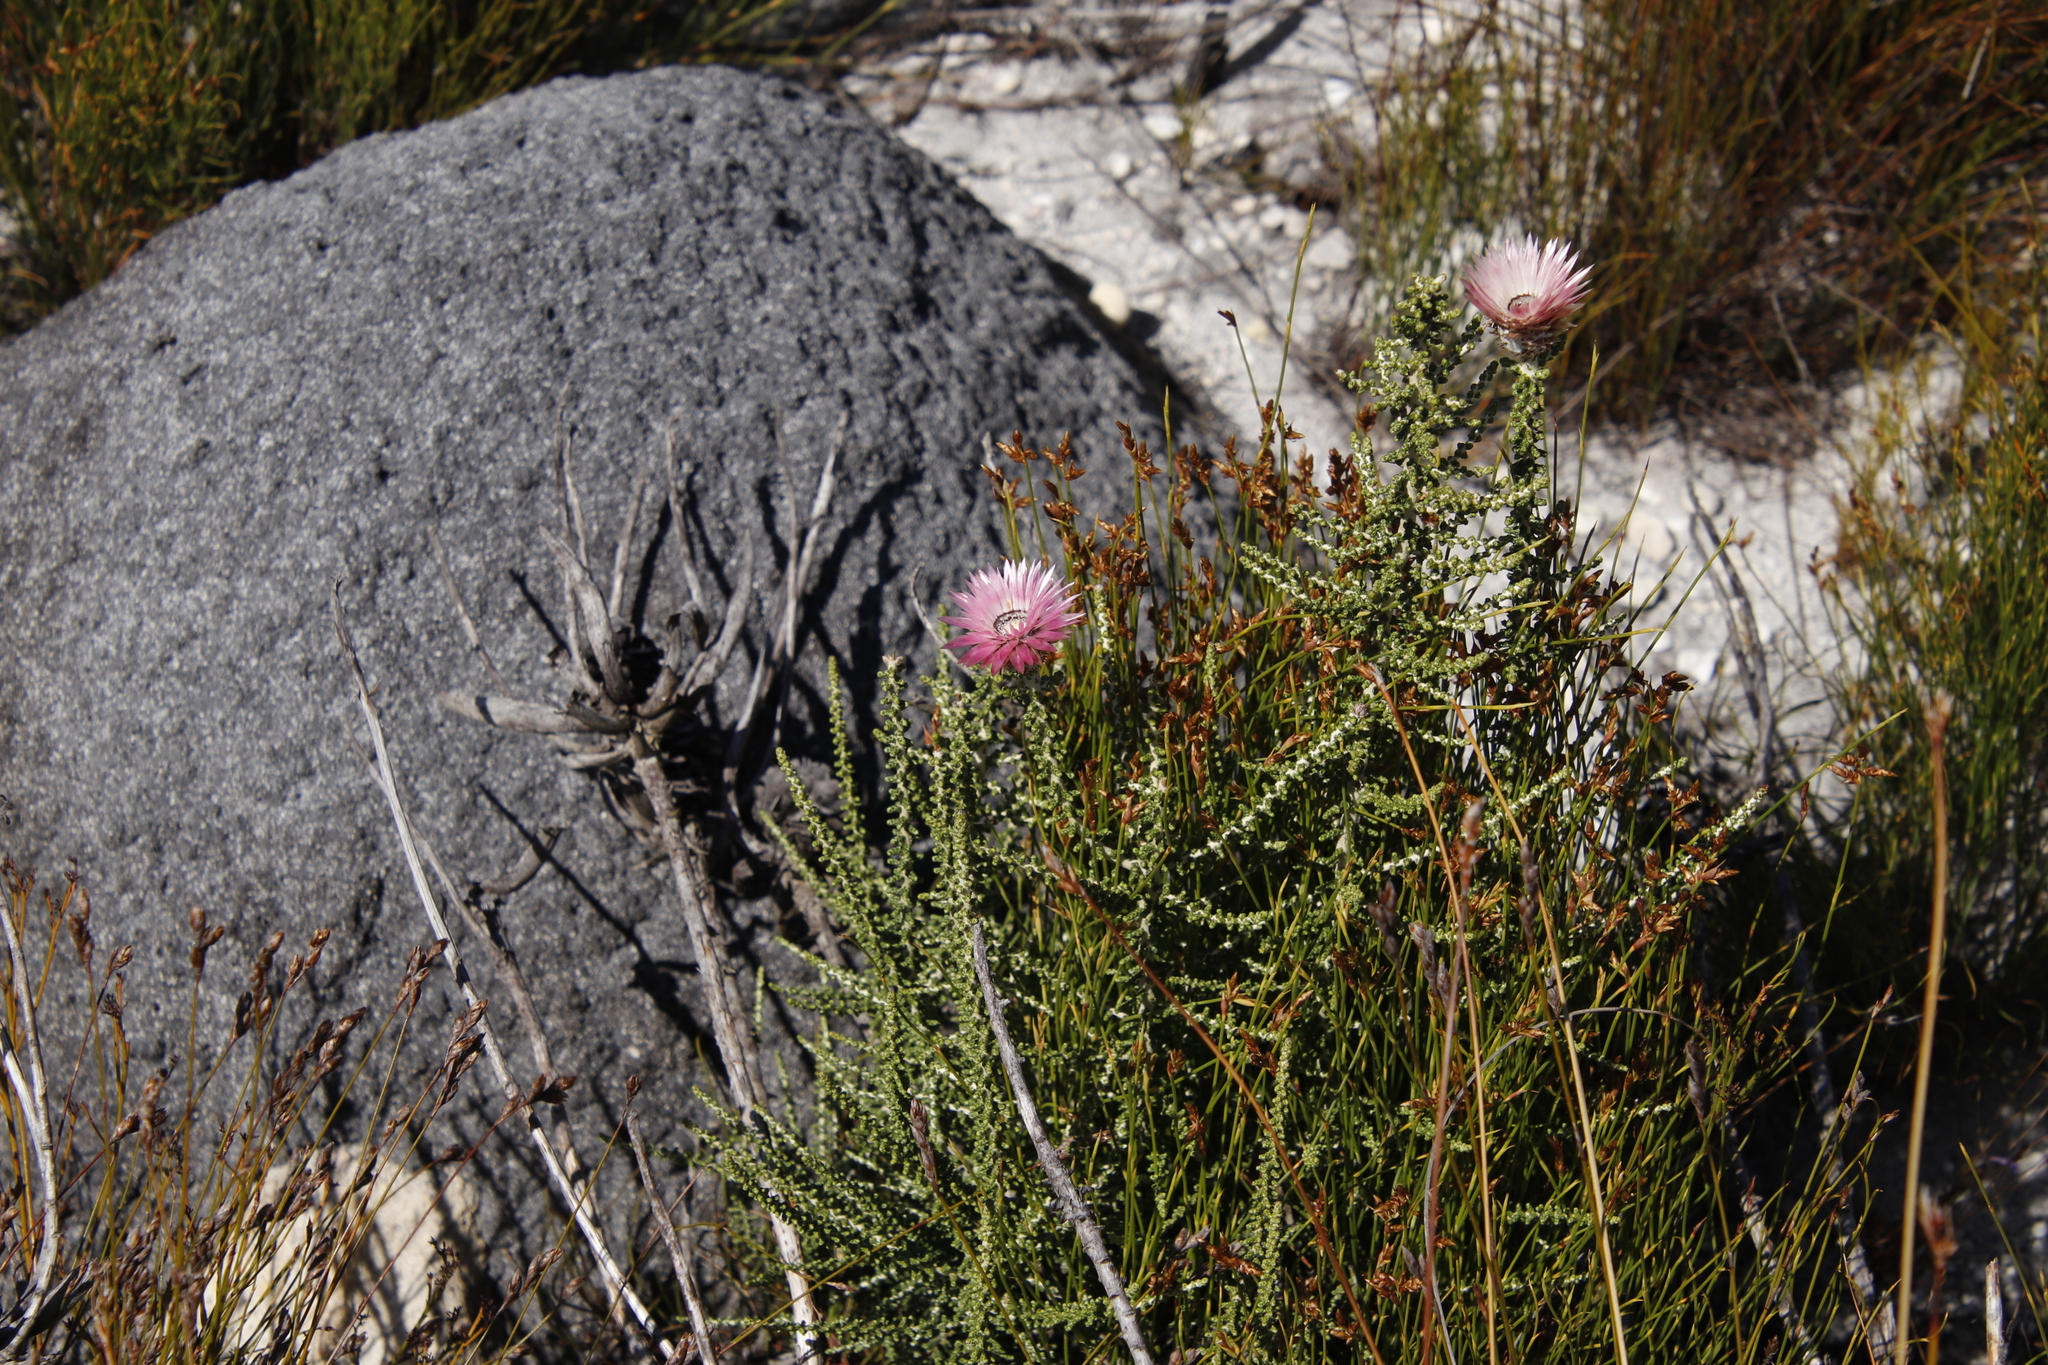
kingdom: Animalia
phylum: Arthropoda
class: Insecta
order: Blattodea
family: Termitidae
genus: Amitermes
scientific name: Amitermes hastatus
